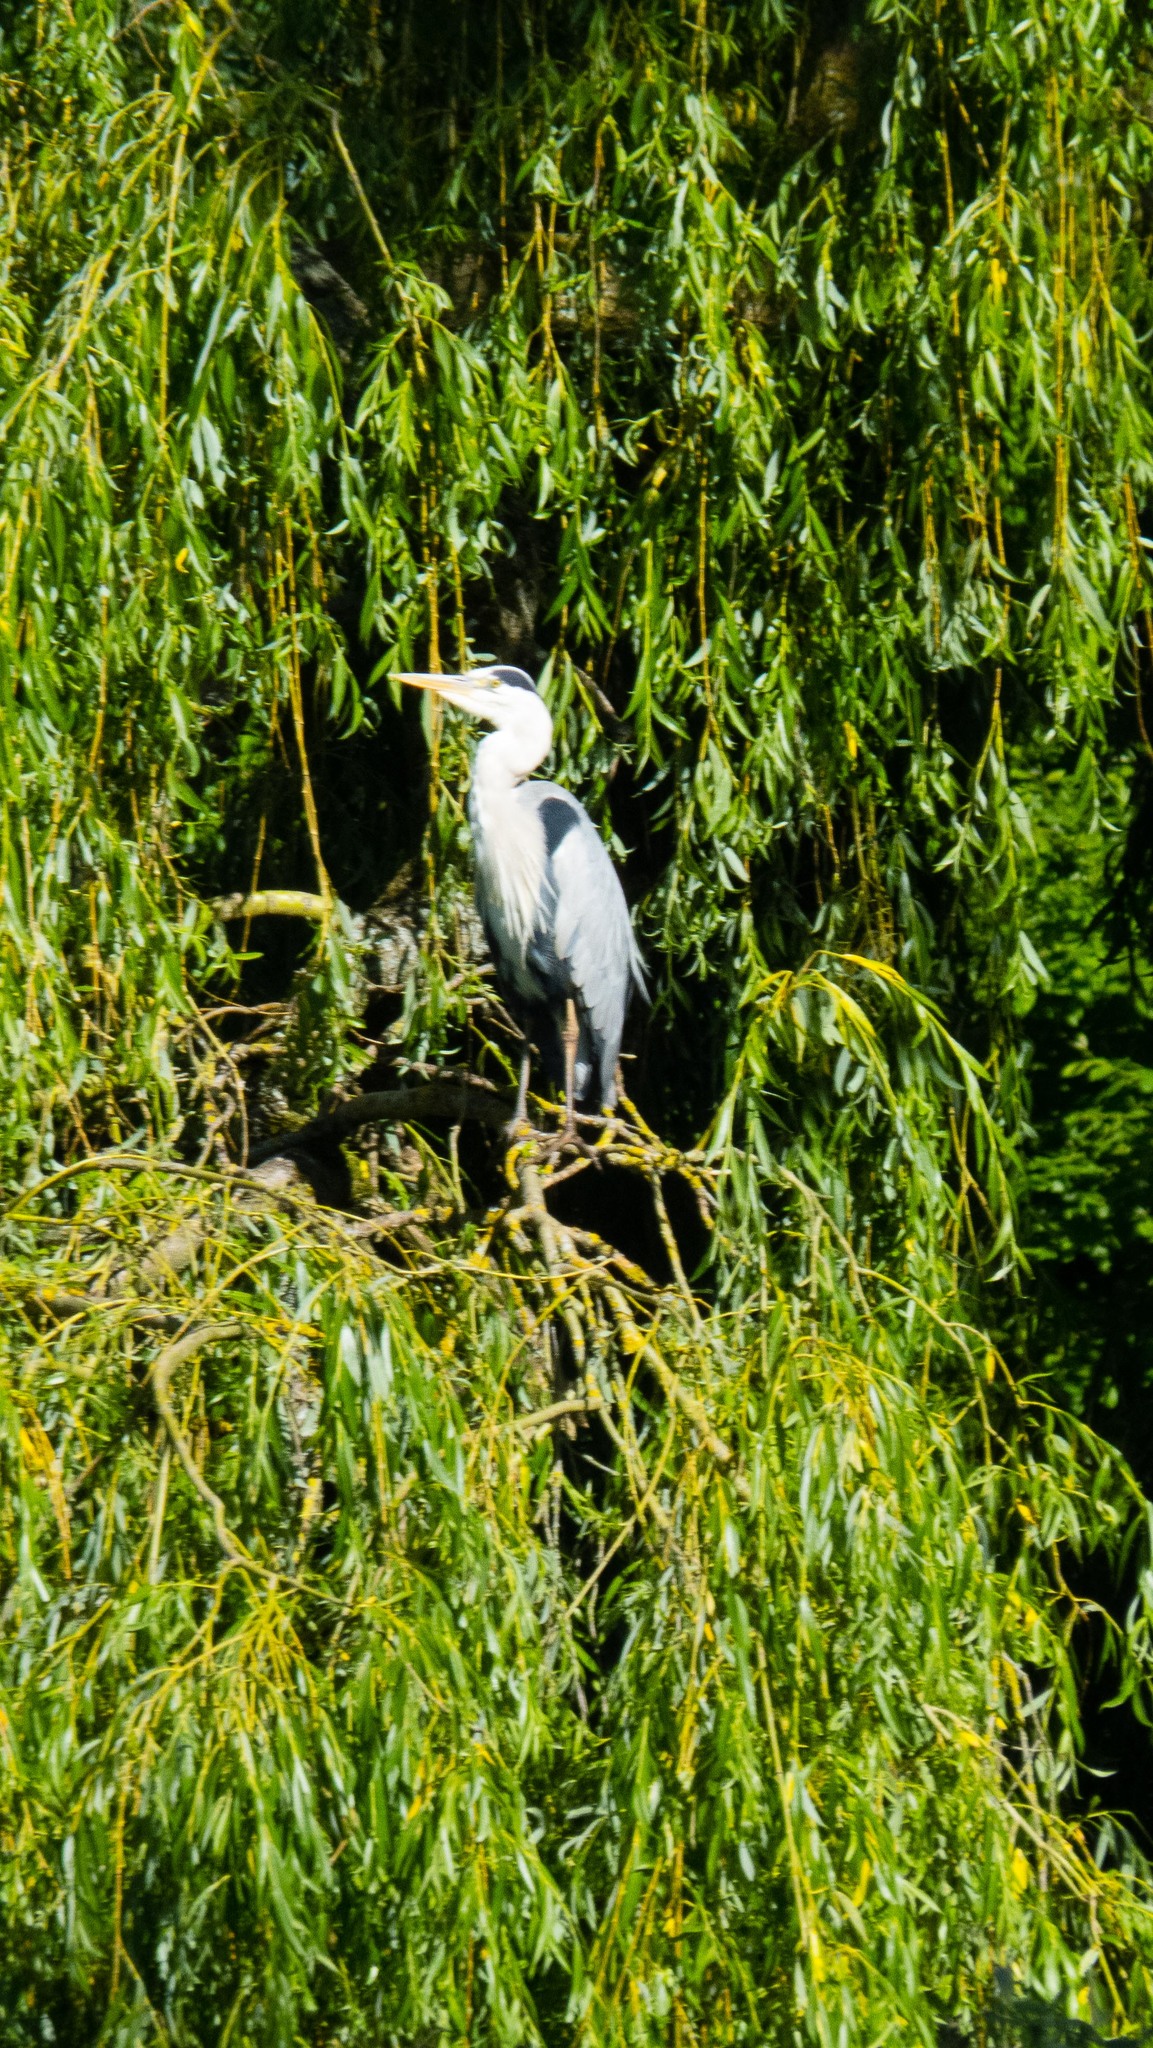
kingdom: Animalia
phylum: Chordata
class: Aves
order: Pelecaniformes
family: Ardeidae
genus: Ardea
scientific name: Ardea cinerea
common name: Grey heron
